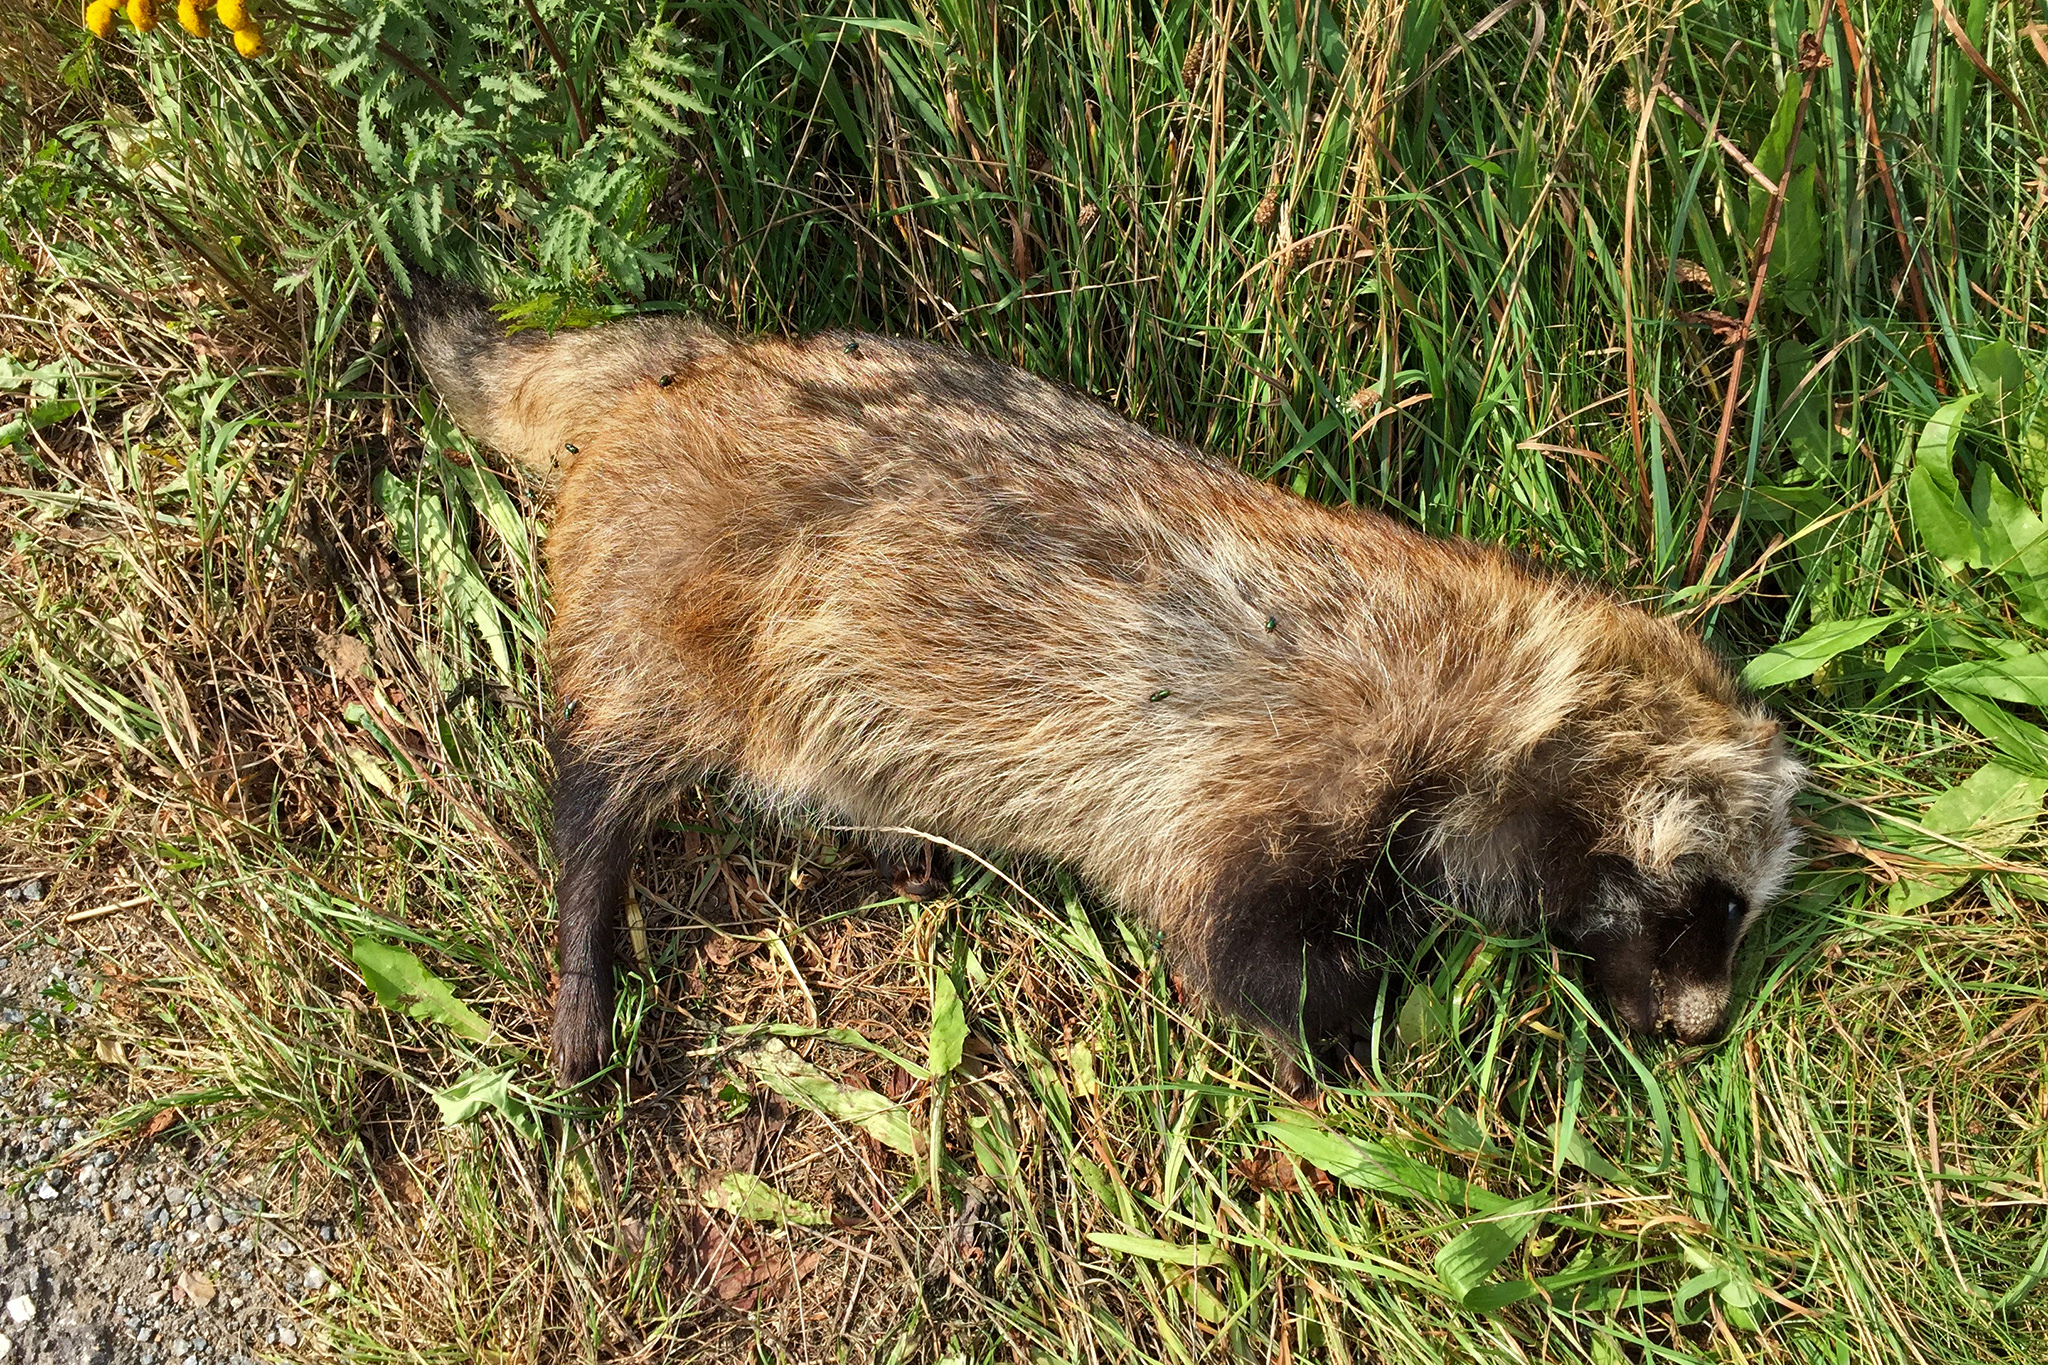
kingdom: Animalia
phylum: Chordata
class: Mammalia
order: Carnivora
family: Canidae
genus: Nyctereutes
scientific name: Nyctereutes procyonoides
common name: Raccoon dog
